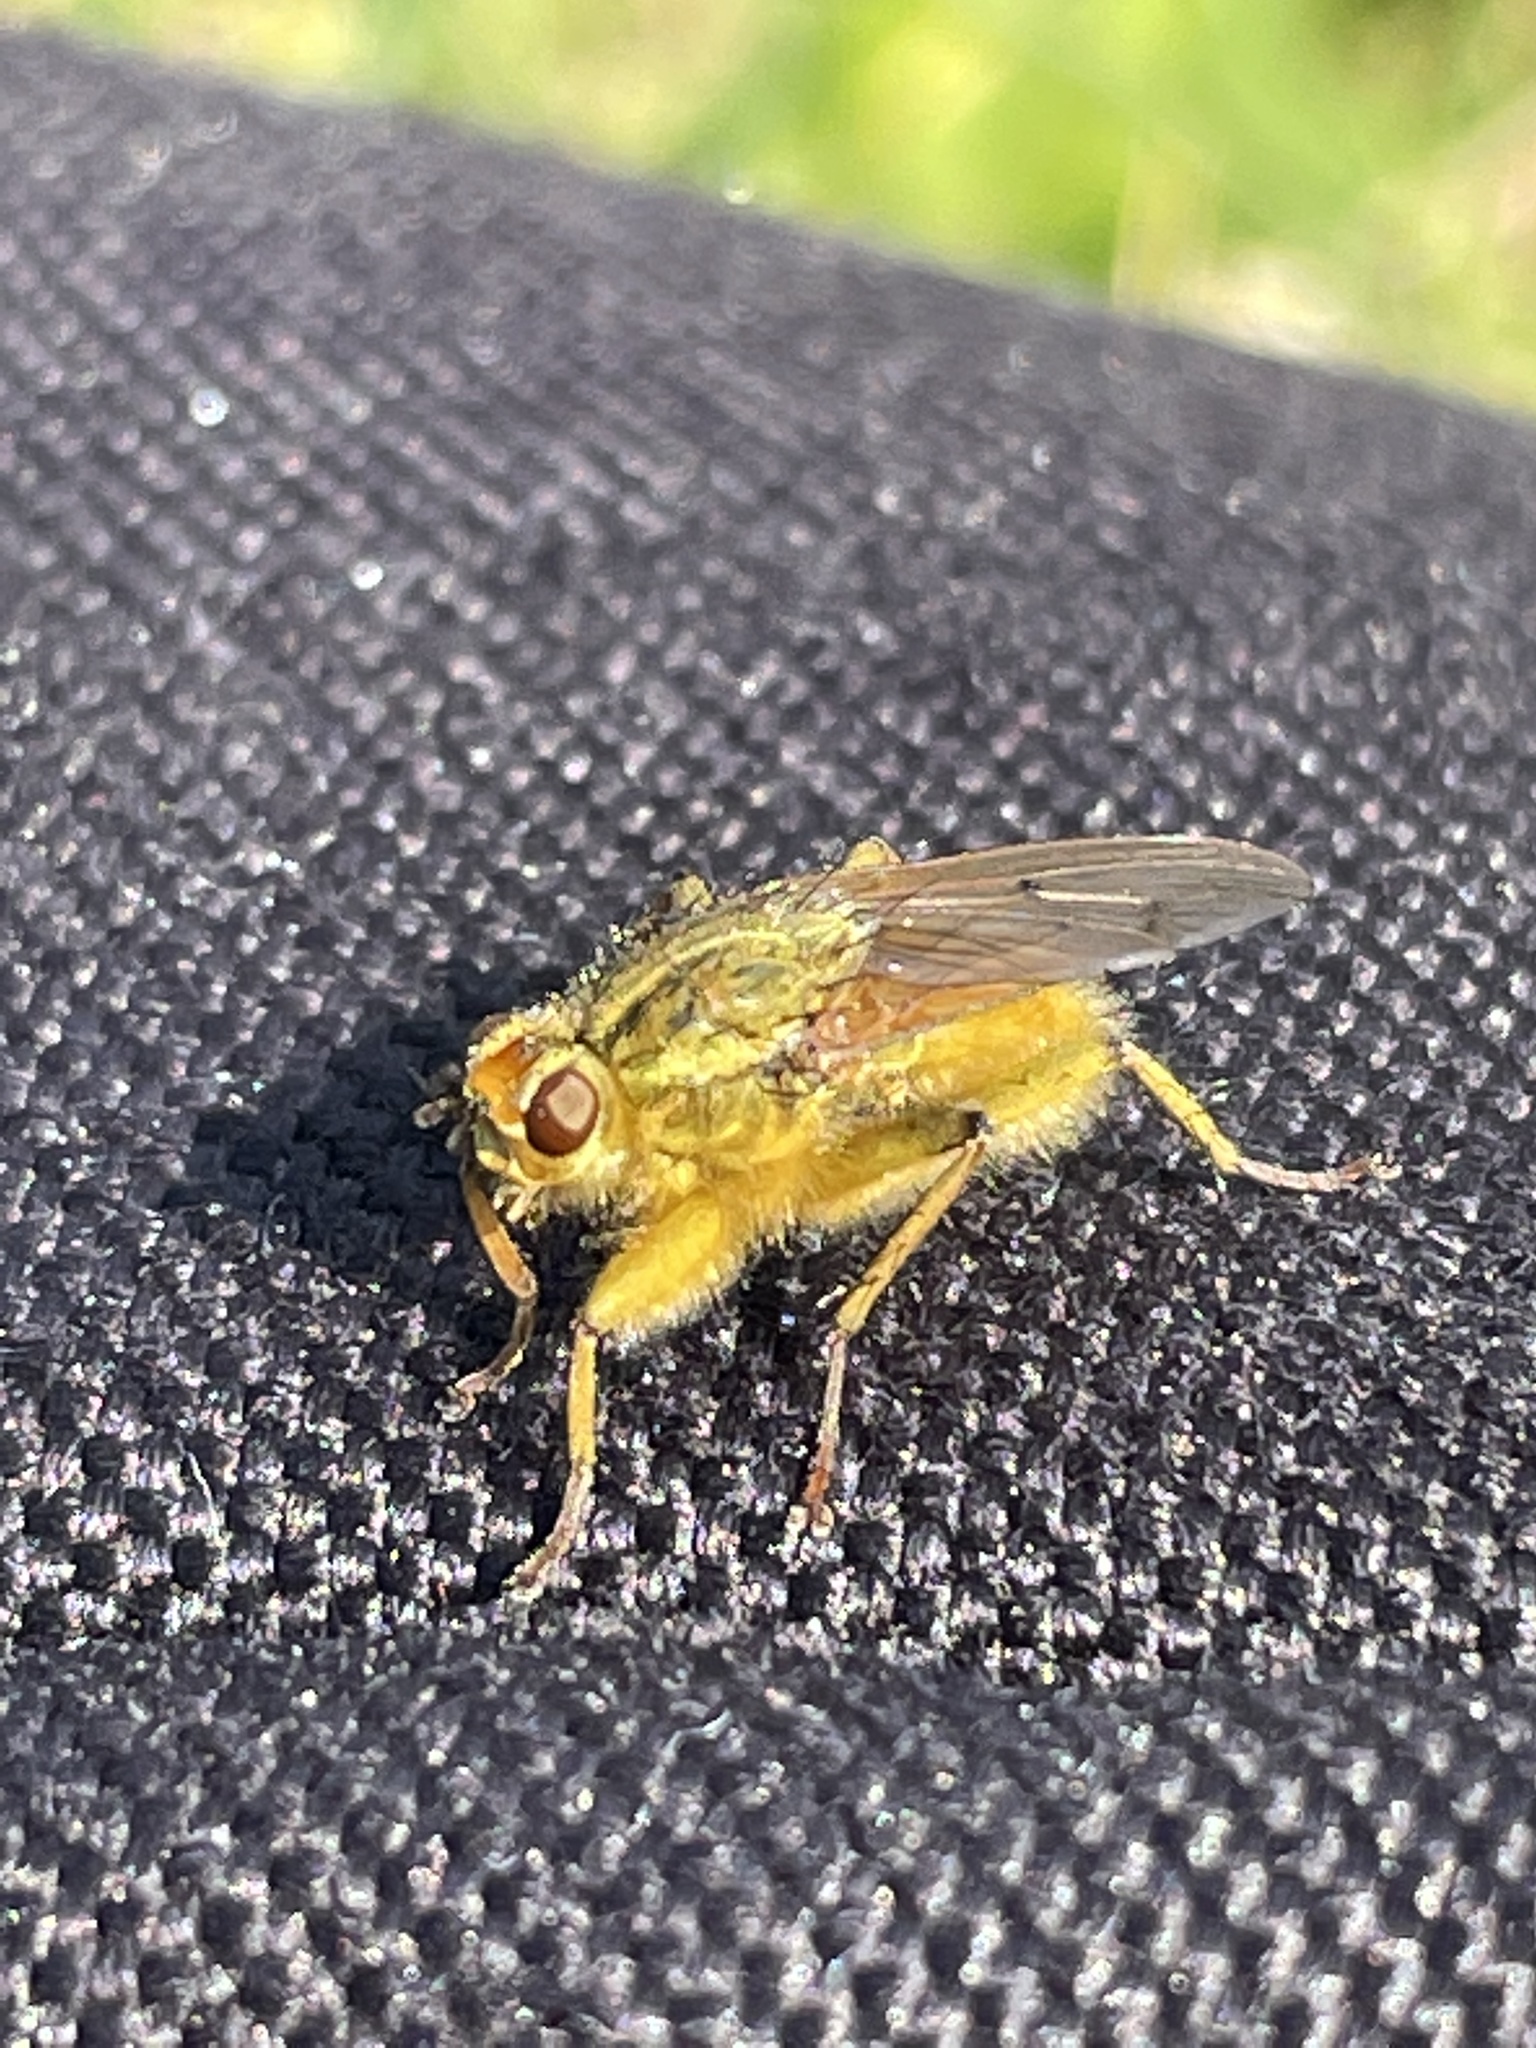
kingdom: Animalia
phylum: Arthropoda
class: Insecta
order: Diptera
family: Scathophagidae
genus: Scathophaga
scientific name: Scathophaga stercoraria
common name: Yellow dung fly
